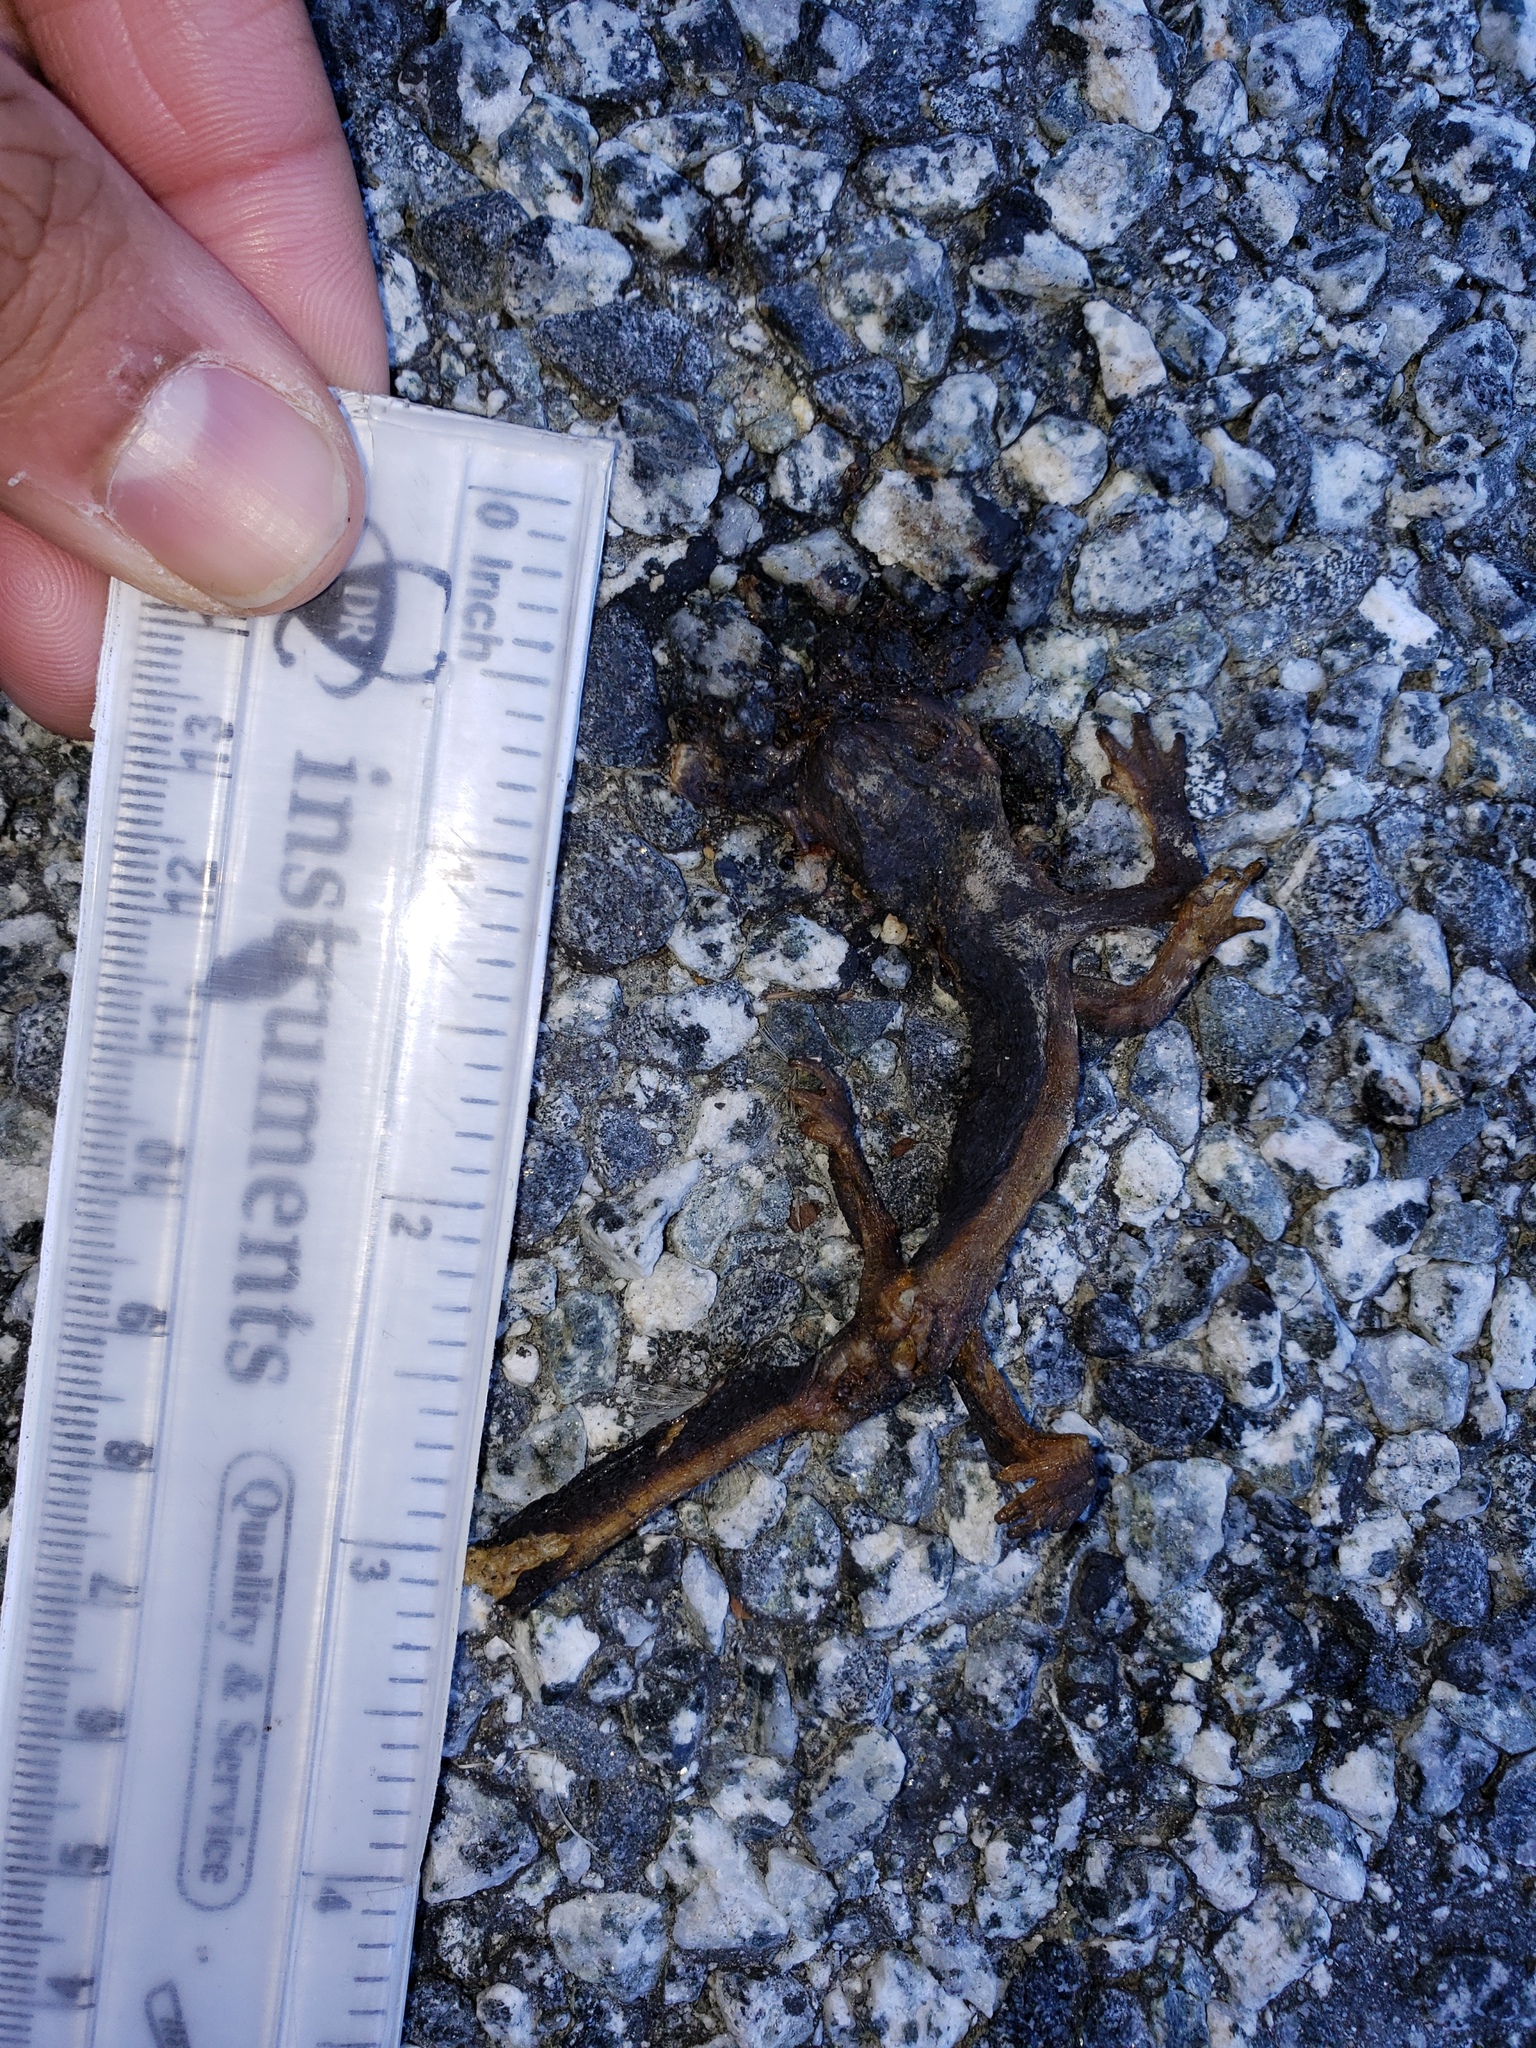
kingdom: Animalia
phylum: Chordata
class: Amphibia
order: Caudata
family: Salamandridae
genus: Taricha
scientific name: Taricha
